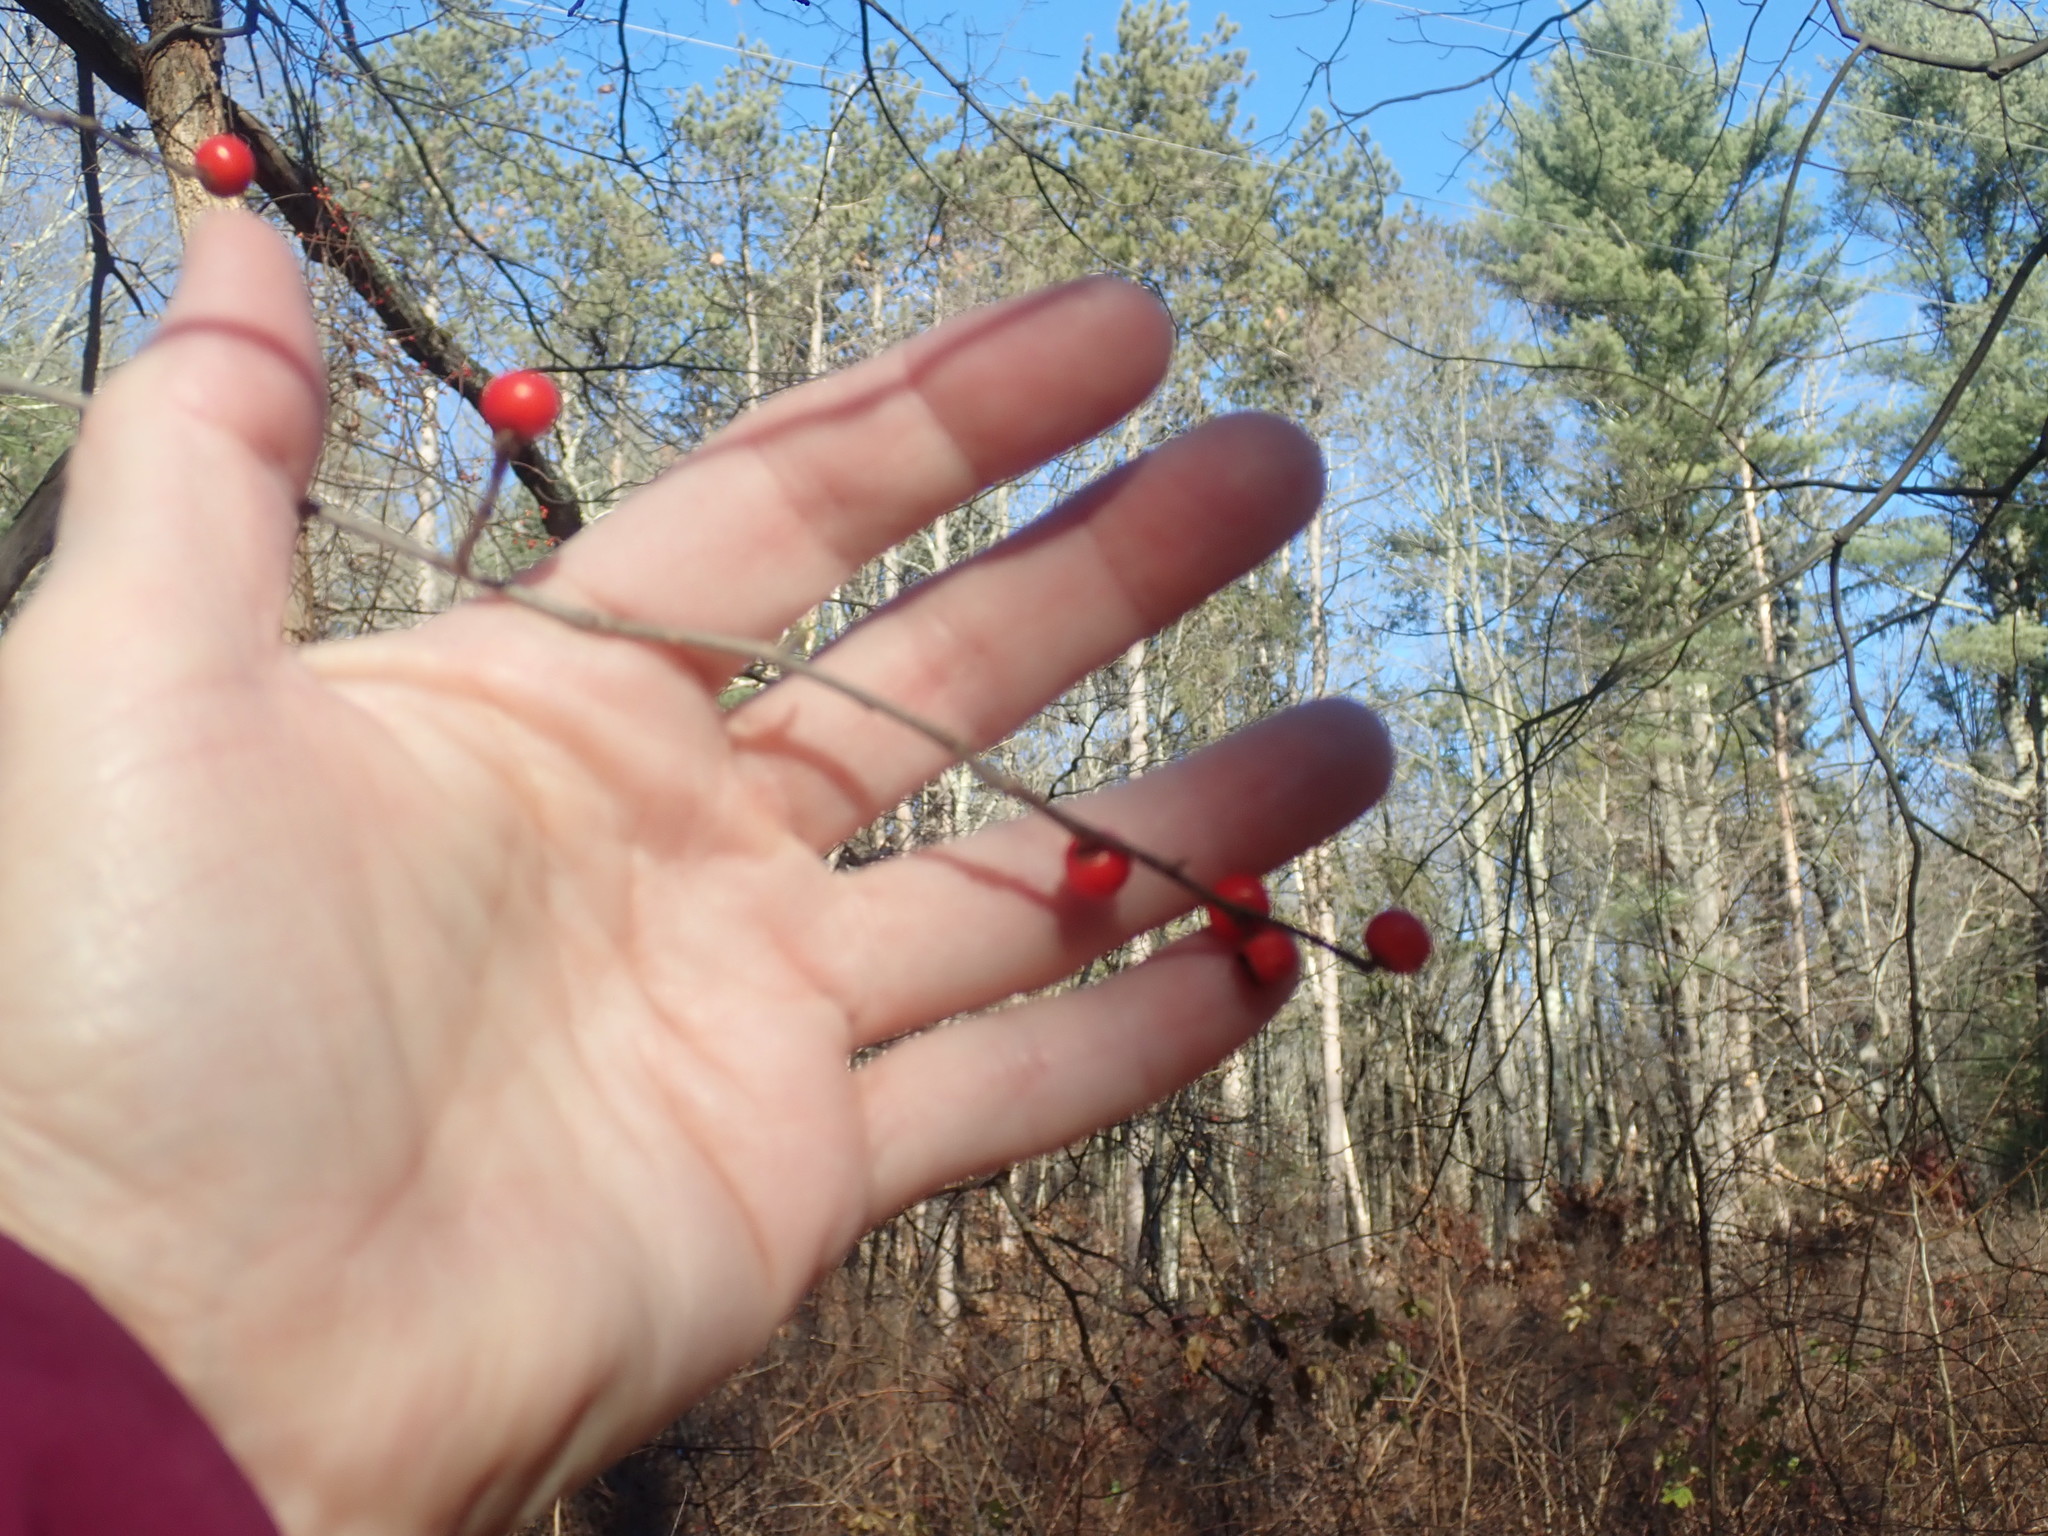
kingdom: Plantae
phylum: Tracheophyta
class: Magnoliopsida
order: Aquifoliales
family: Aquifoliaceae
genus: Ilex
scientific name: Ilex verticillata
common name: Virginia winterberry
